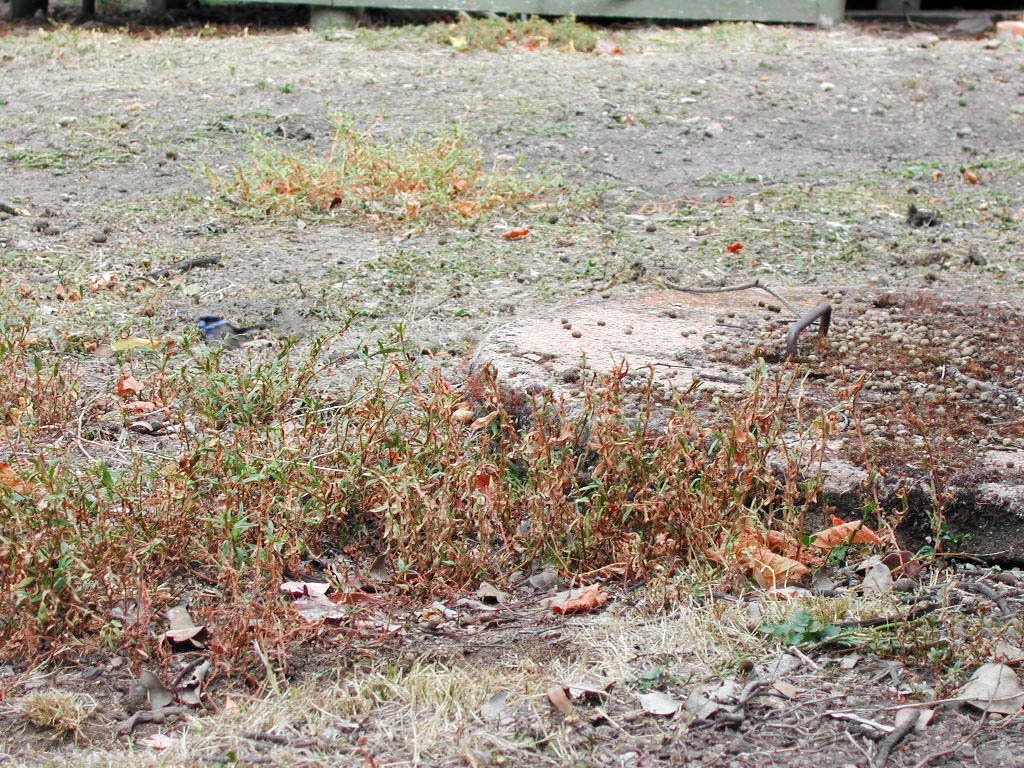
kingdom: Animalia
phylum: Chordata
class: Aves
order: Passeriformes
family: Maluridae
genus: Malurus
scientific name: Malurus cyaneus
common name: Superb fairywren
